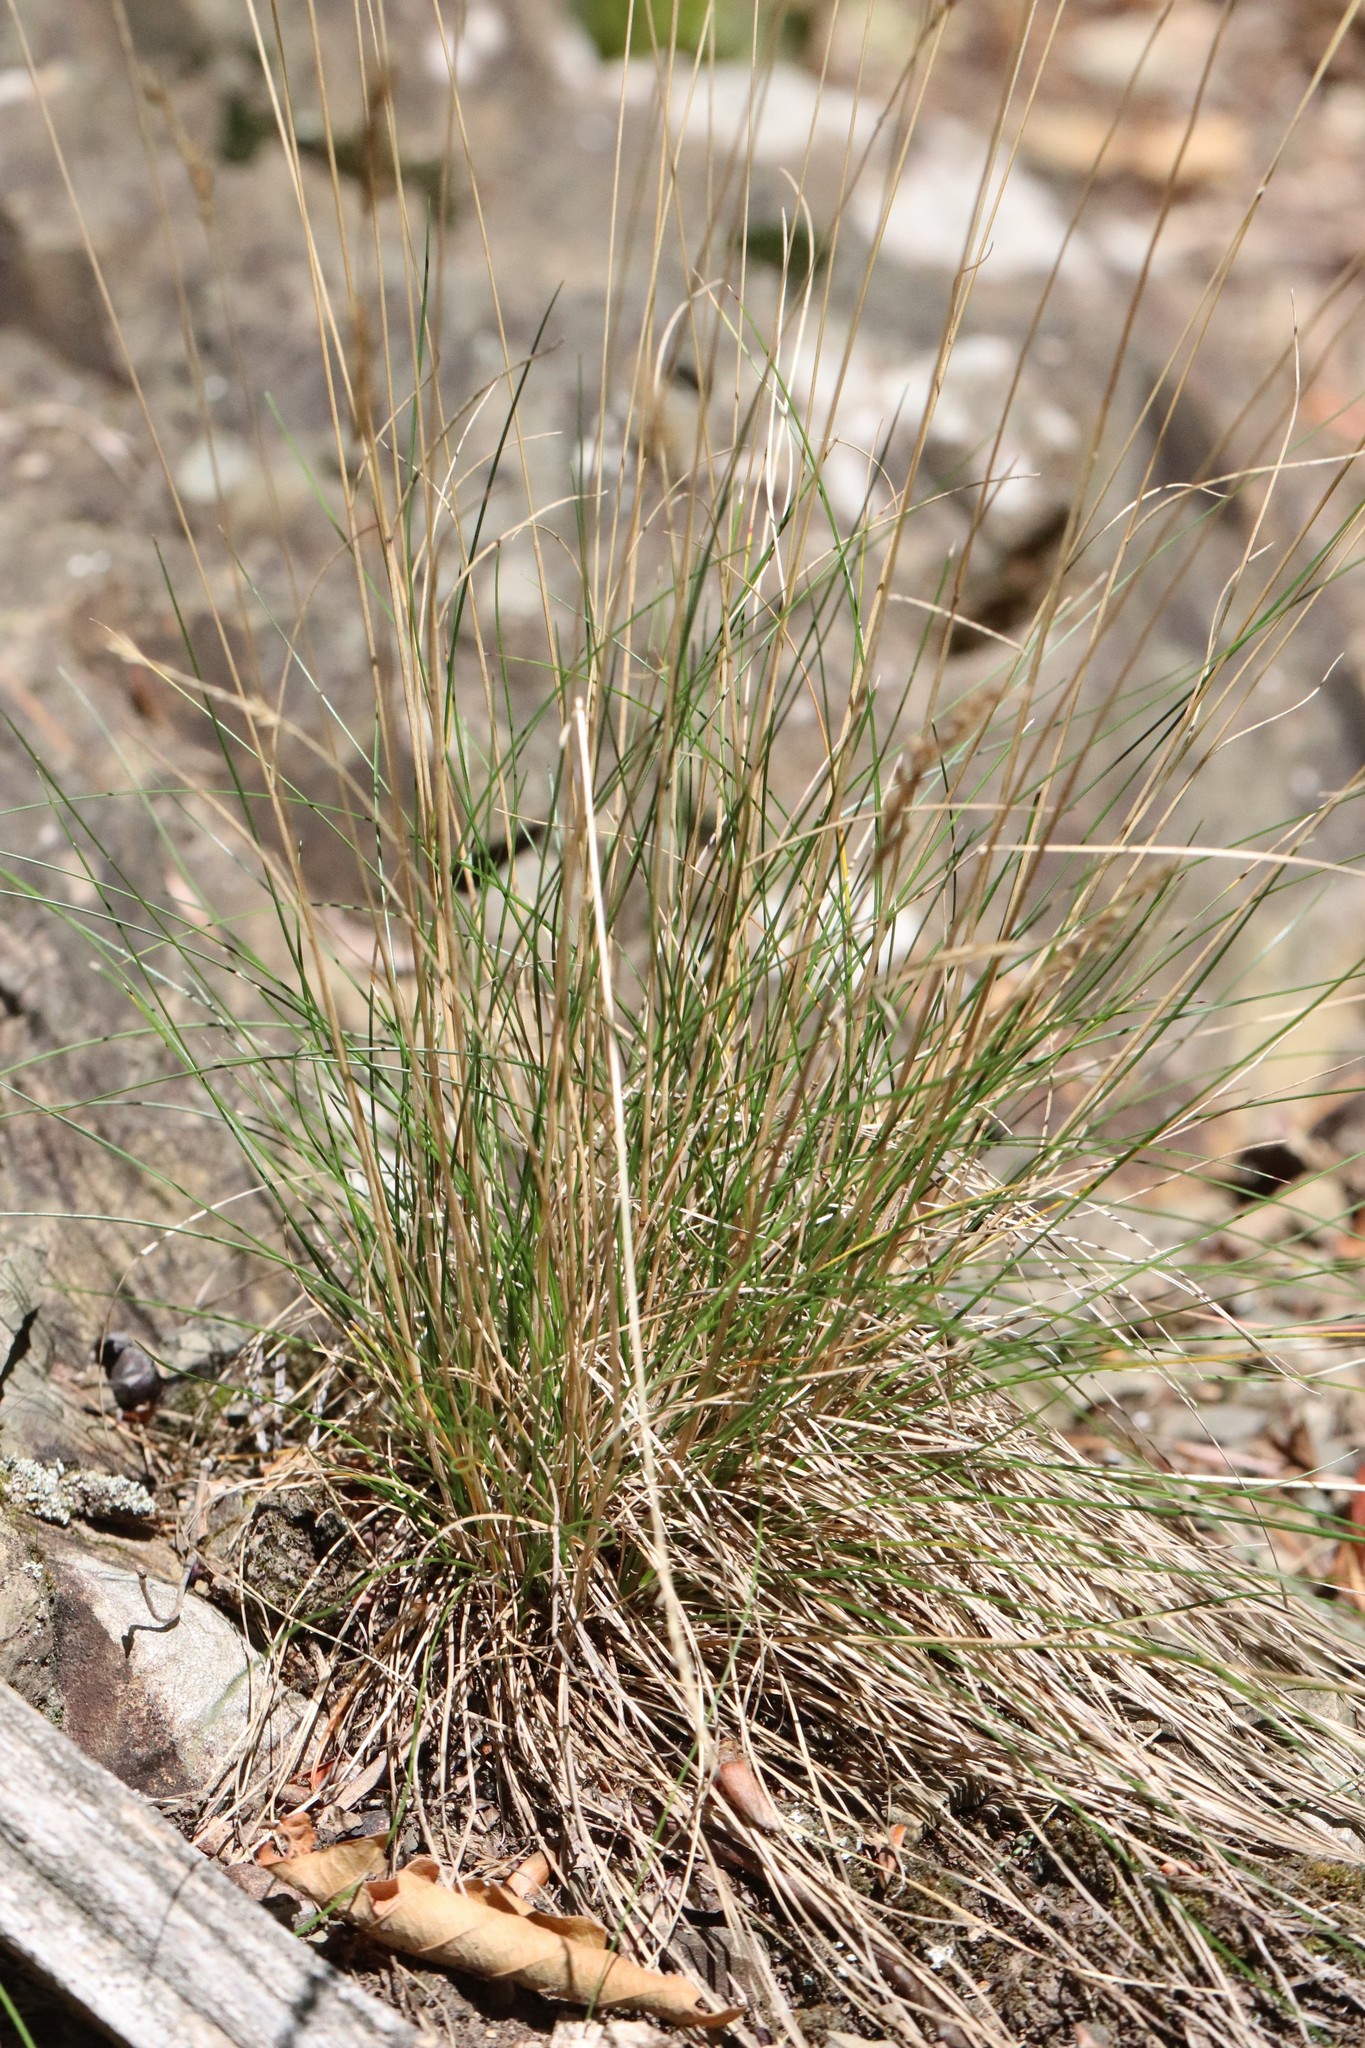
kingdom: Plantae
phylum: Tracheophyta
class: Liliopsida
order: Poales
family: Poaceae
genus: Festuca
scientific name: Festuca ovina
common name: Sheep fescue
